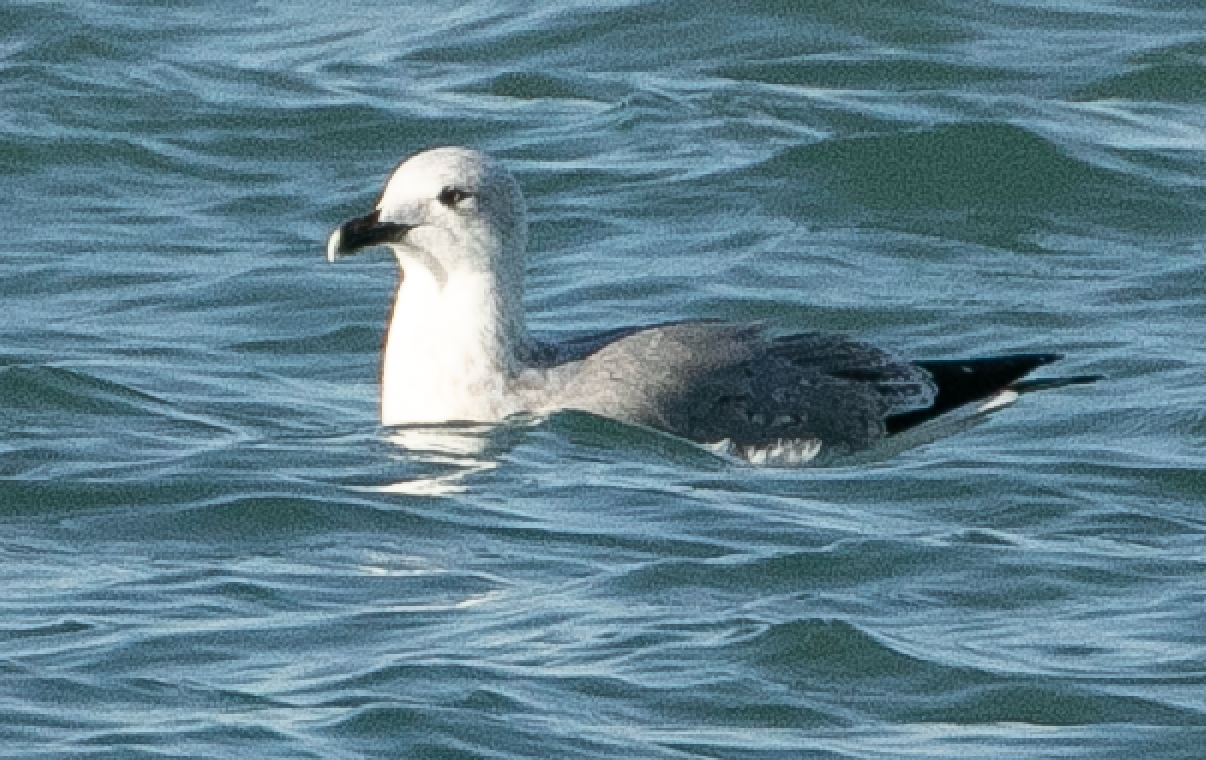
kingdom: Animalia
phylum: Chordata
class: Aves
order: Charadriiformes
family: Laridae
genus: Larus
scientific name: Larus michahellis
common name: Yellow-legged gull
